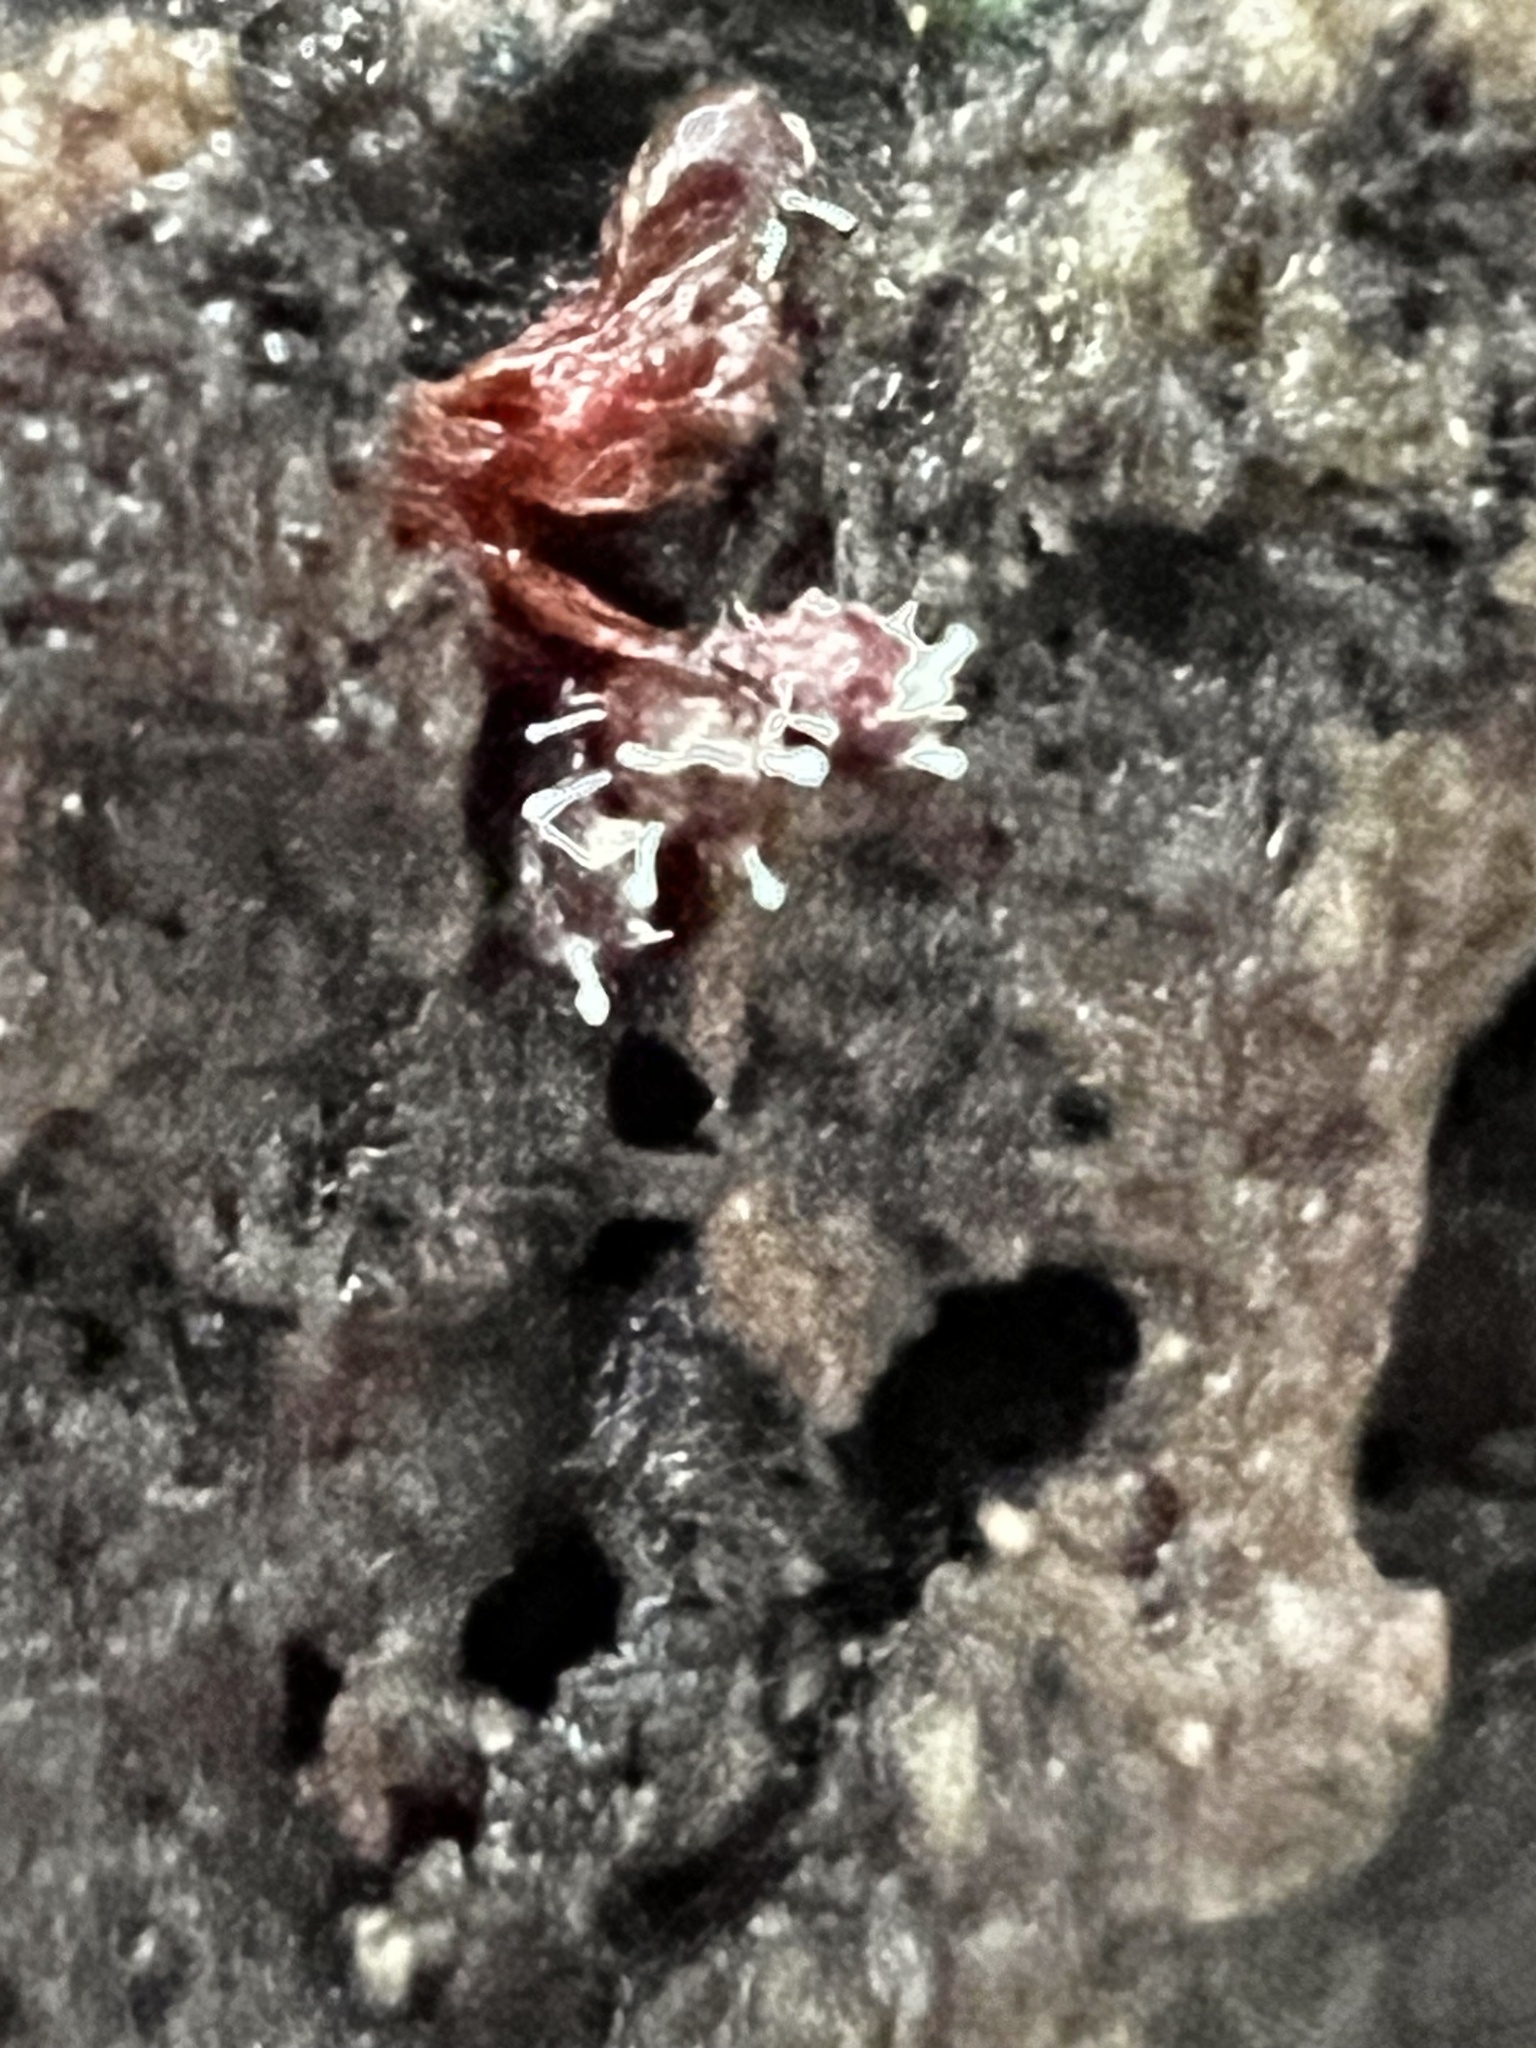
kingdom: Fungi
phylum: Ascomycota
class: Sordariomycetes
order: Hypocreales
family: Ophiocordycipitaceae
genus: Polycephalomyces
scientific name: Polycephalomyces tomentosus
